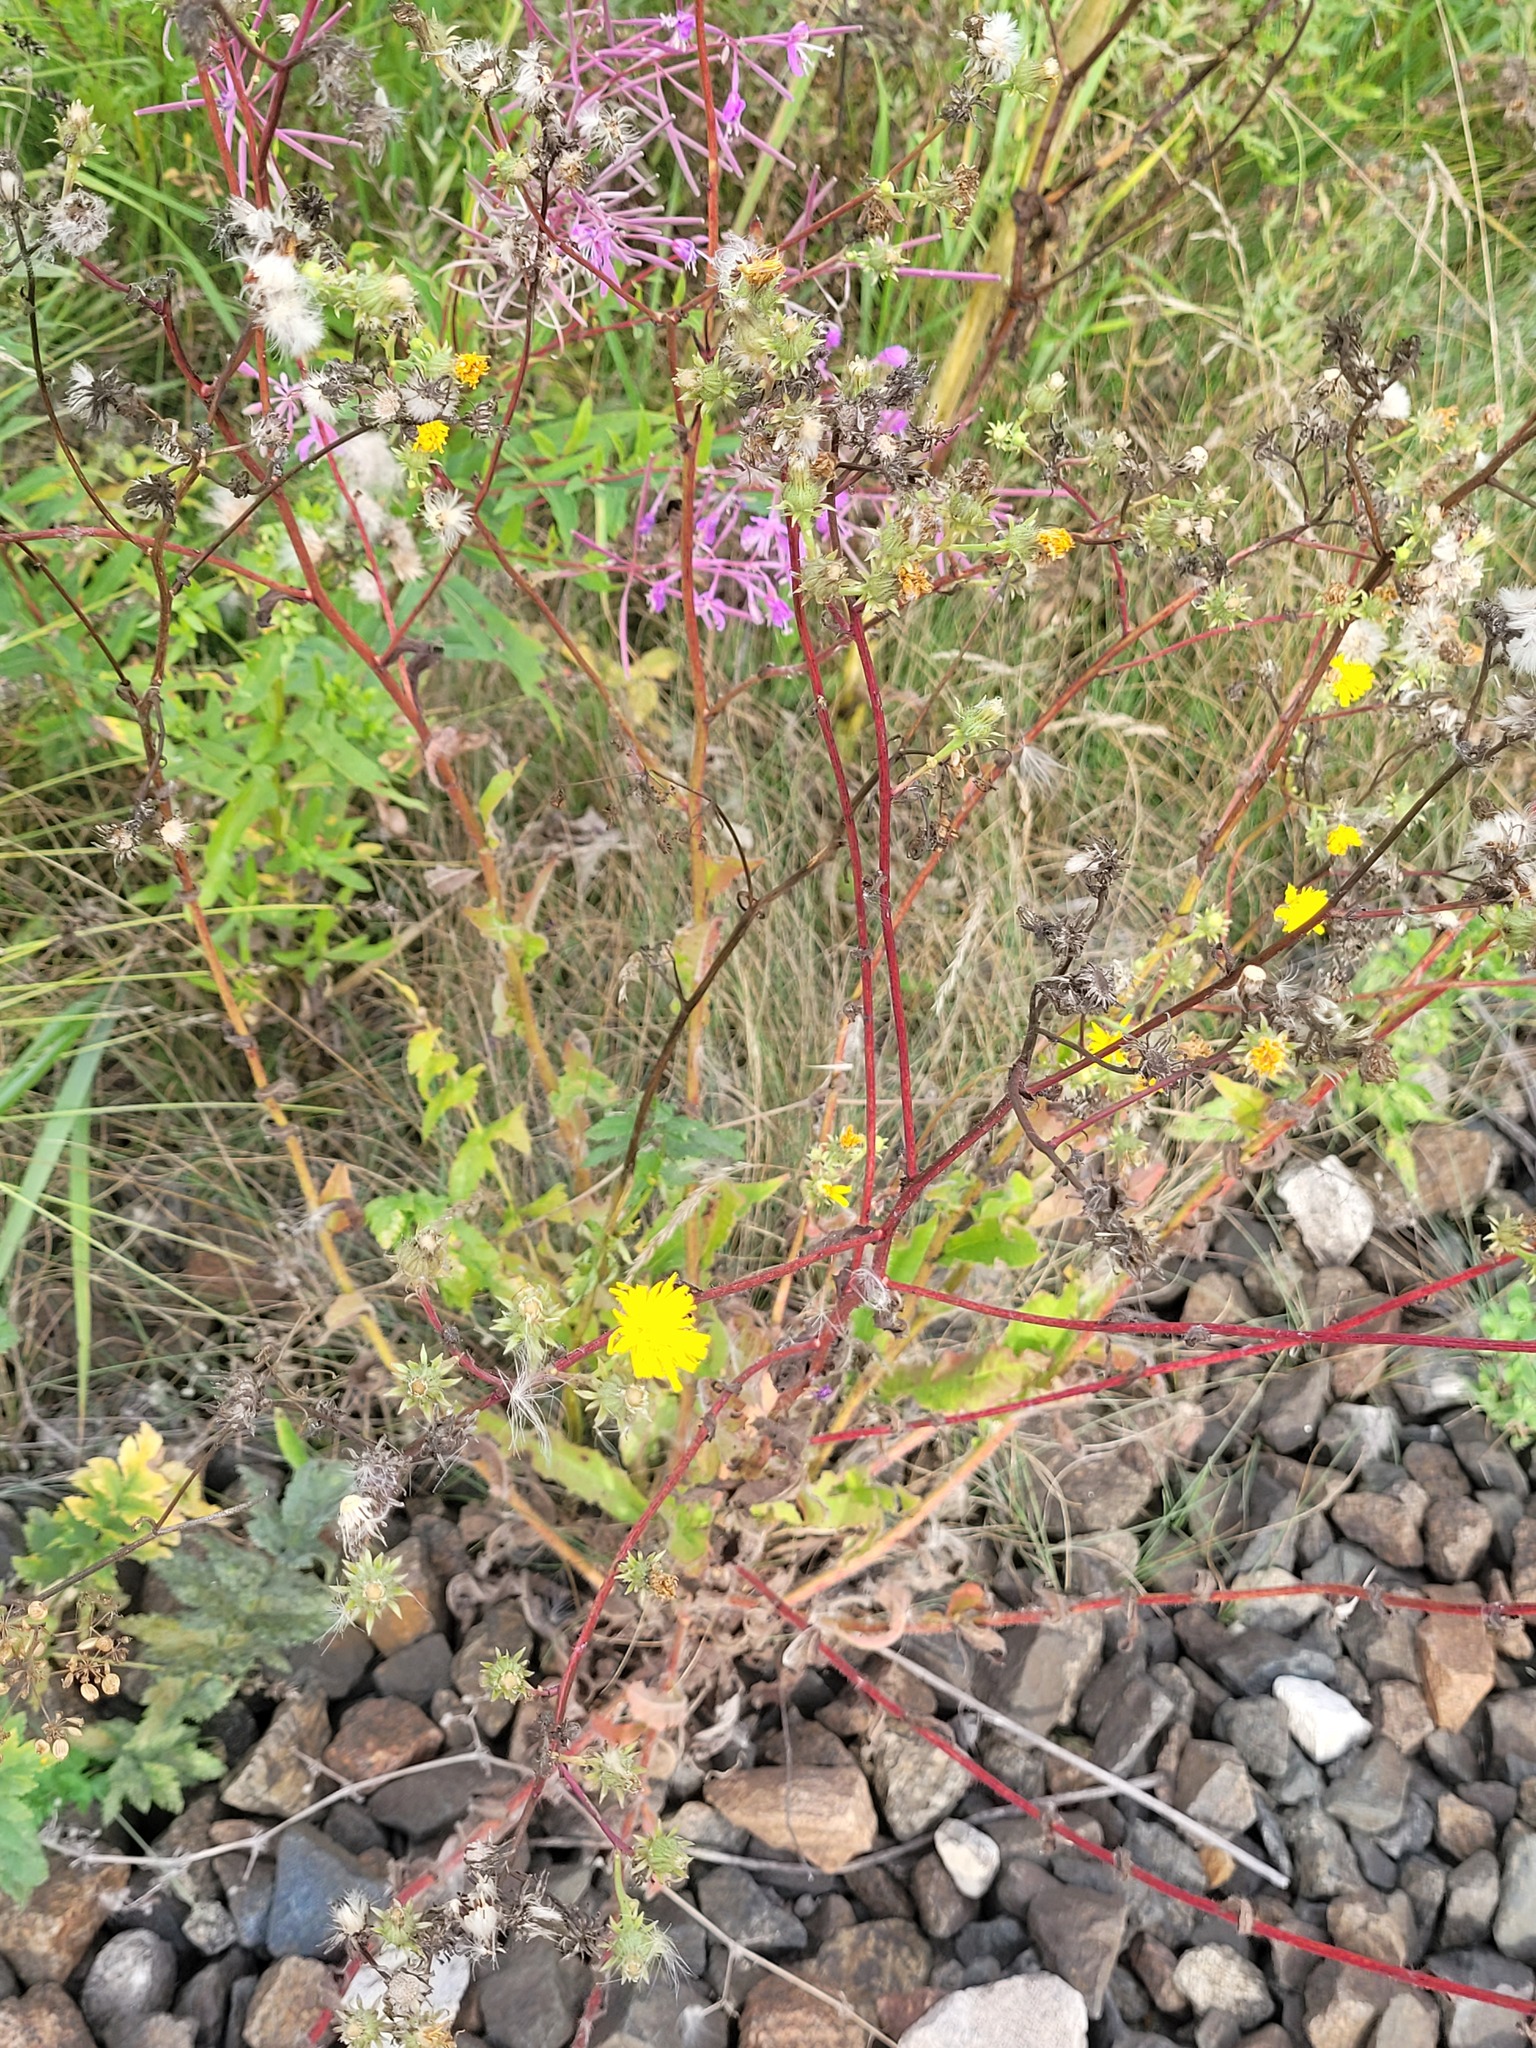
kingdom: Plantae
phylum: Tracheophyta
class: Magnoliopsida
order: Asterales
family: Asteraceae
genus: Picris
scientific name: Picris hieracioides
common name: Hawkweed oxtongue
